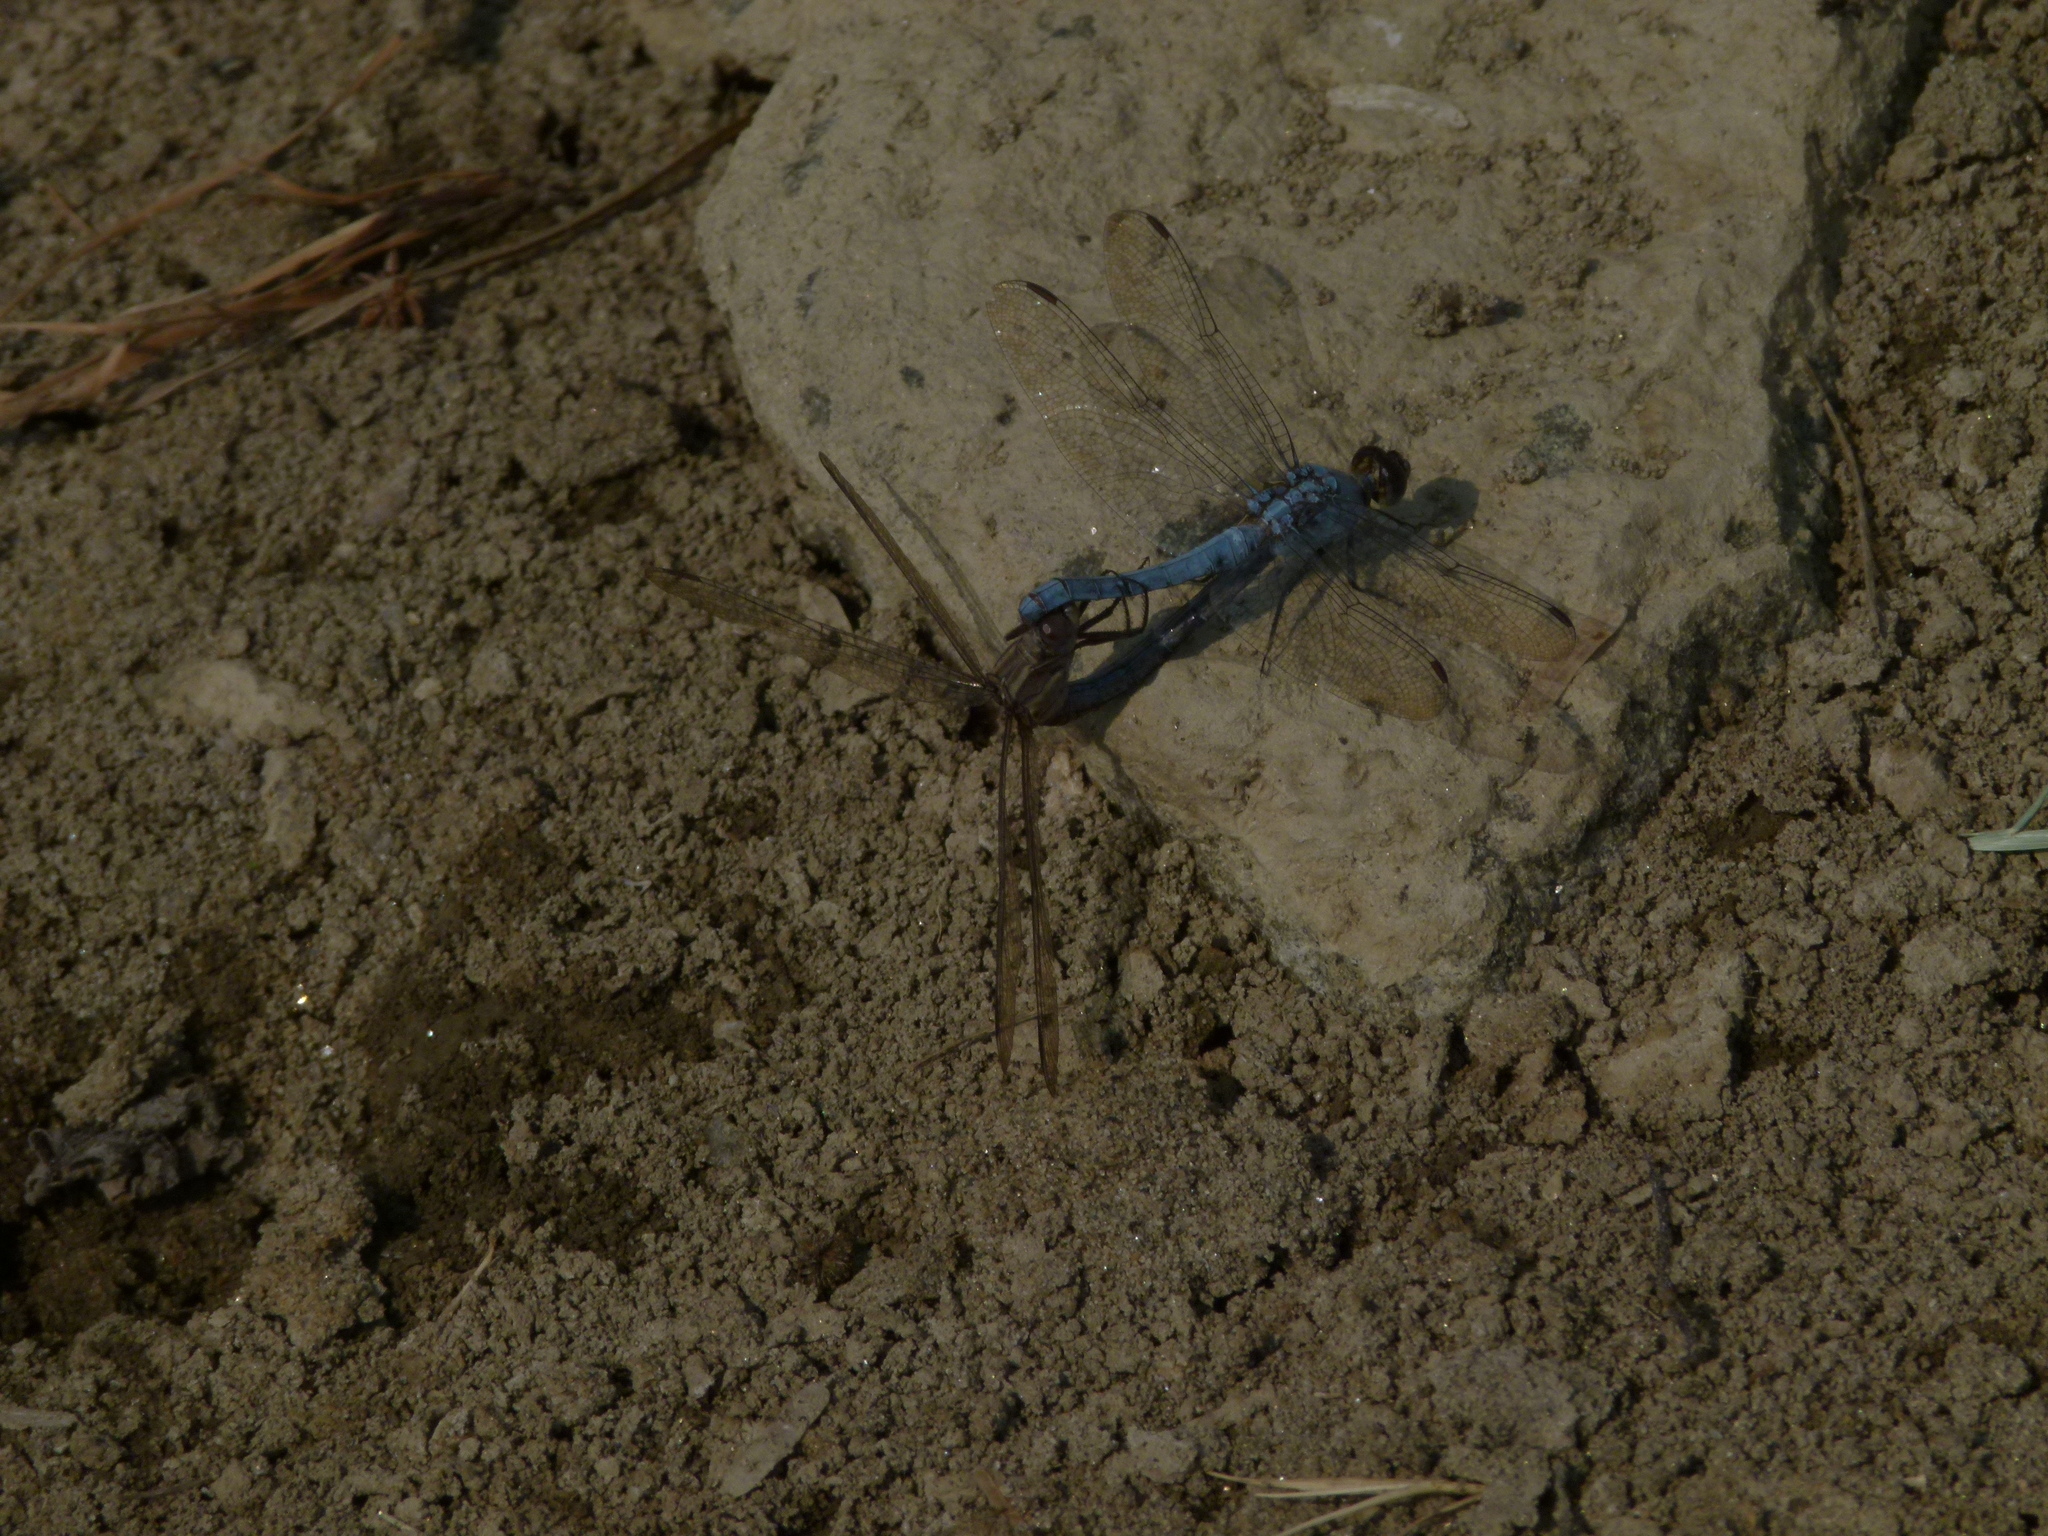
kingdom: Animalia
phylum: Arthropoda
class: Insecta
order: Odonata
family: Libellulidae
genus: Orthetrum
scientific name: Orthetrum taeniolatum
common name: Small skimmer
